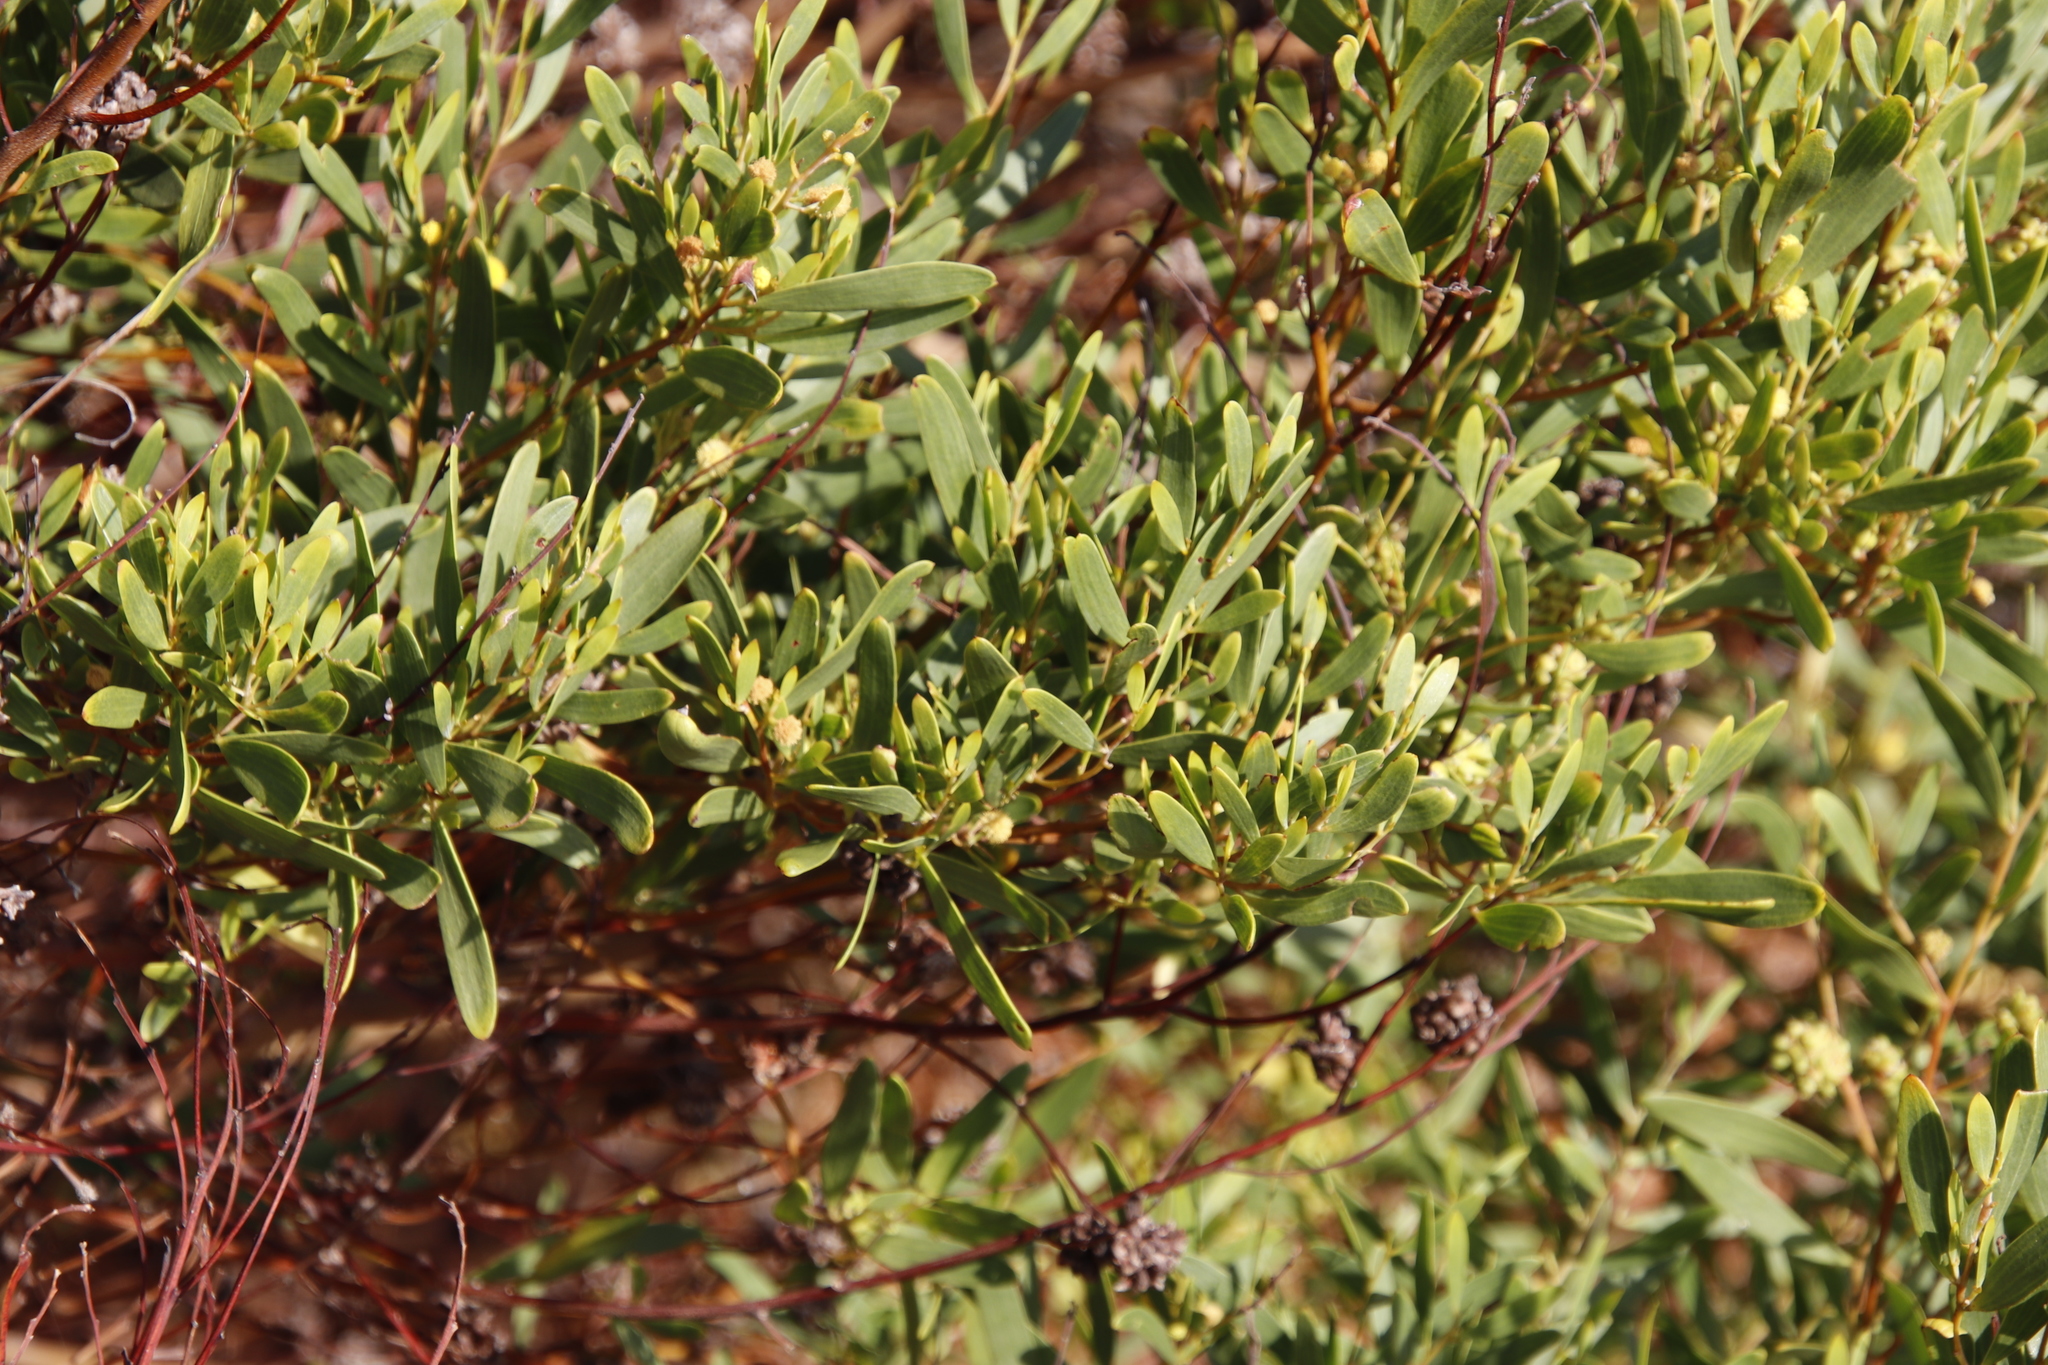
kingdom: Plantae
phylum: Tracheophyta
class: Magnoliopsida
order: Fabales
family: Fabaceae
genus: Acacia
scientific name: Acacia cyclops
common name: Coastal wattle
